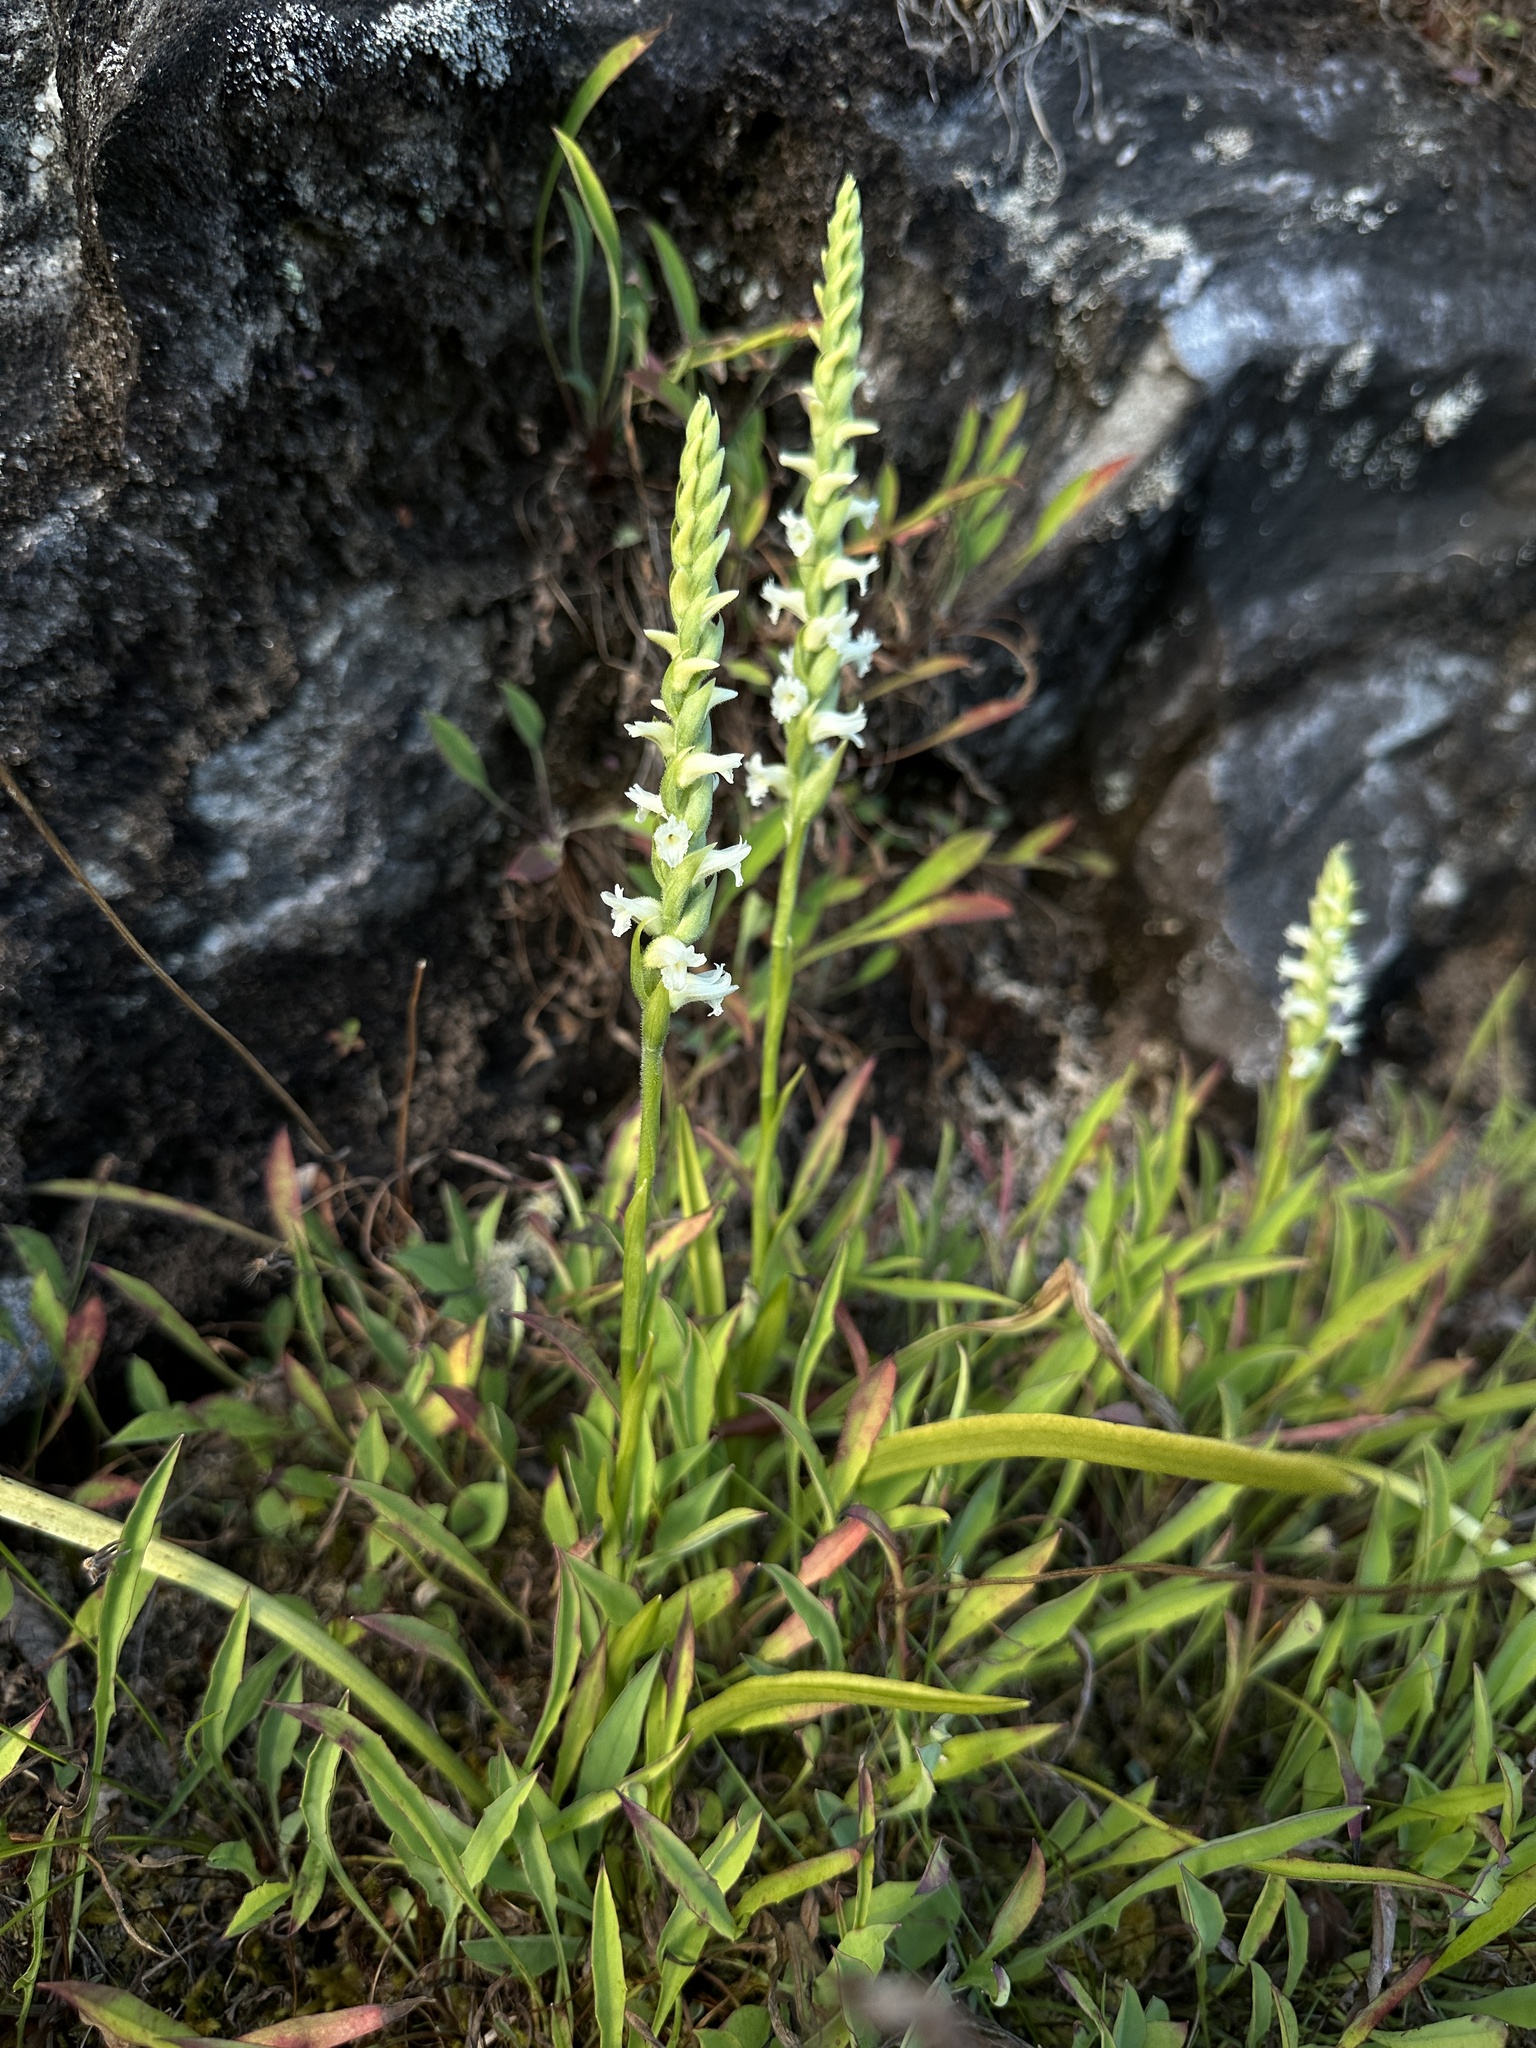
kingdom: Plantae
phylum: Tracheophyta
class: Liliopsida
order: Asparagales
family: Orchidaceae
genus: Spiranthes
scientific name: Spiranthes ochroleuca
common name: Yellow ladies'-tresses
